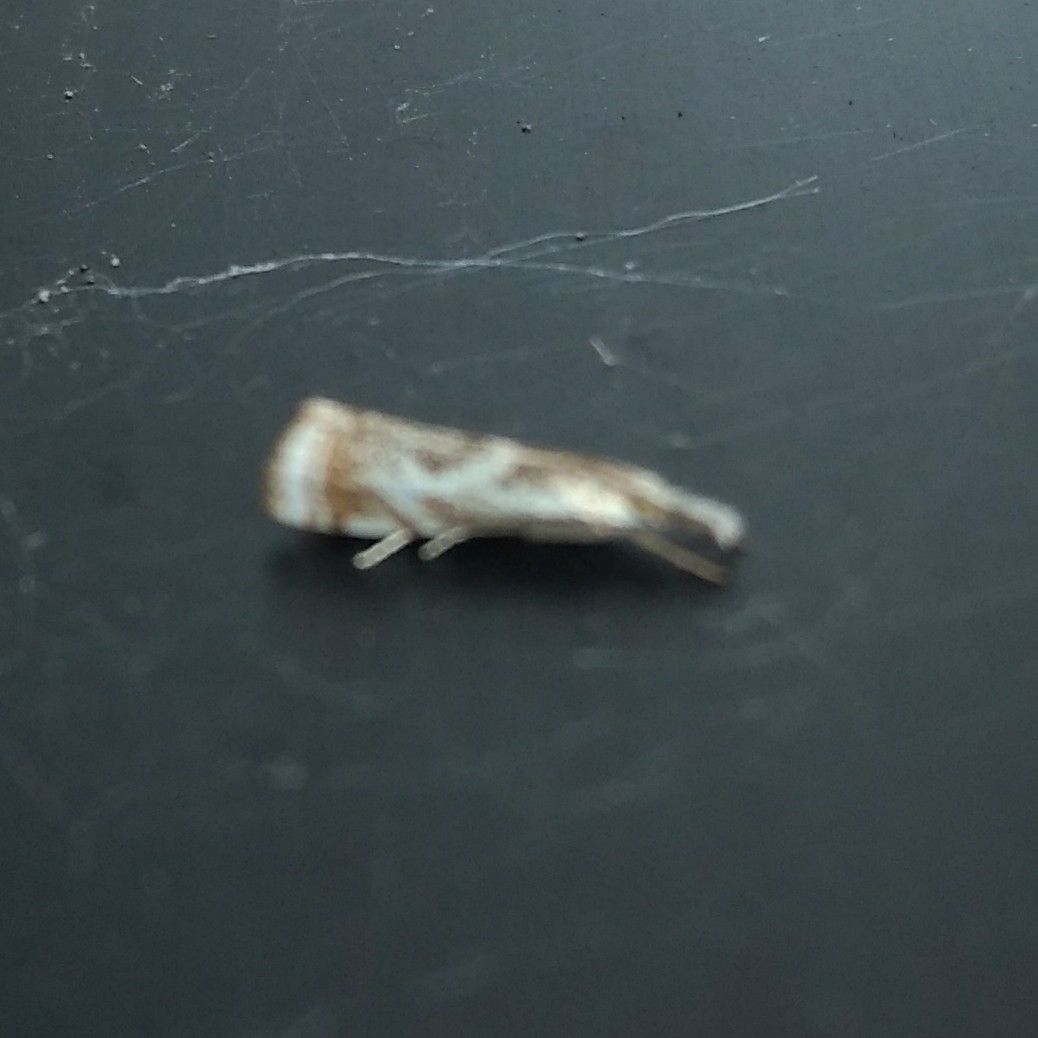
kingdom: Animalia
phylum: Arthropoda
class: Insecta
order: Lepidoptera
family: Crambidae
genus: Microcrambus
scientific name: Microcrambus elegans
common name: Elegant grass-veneer
